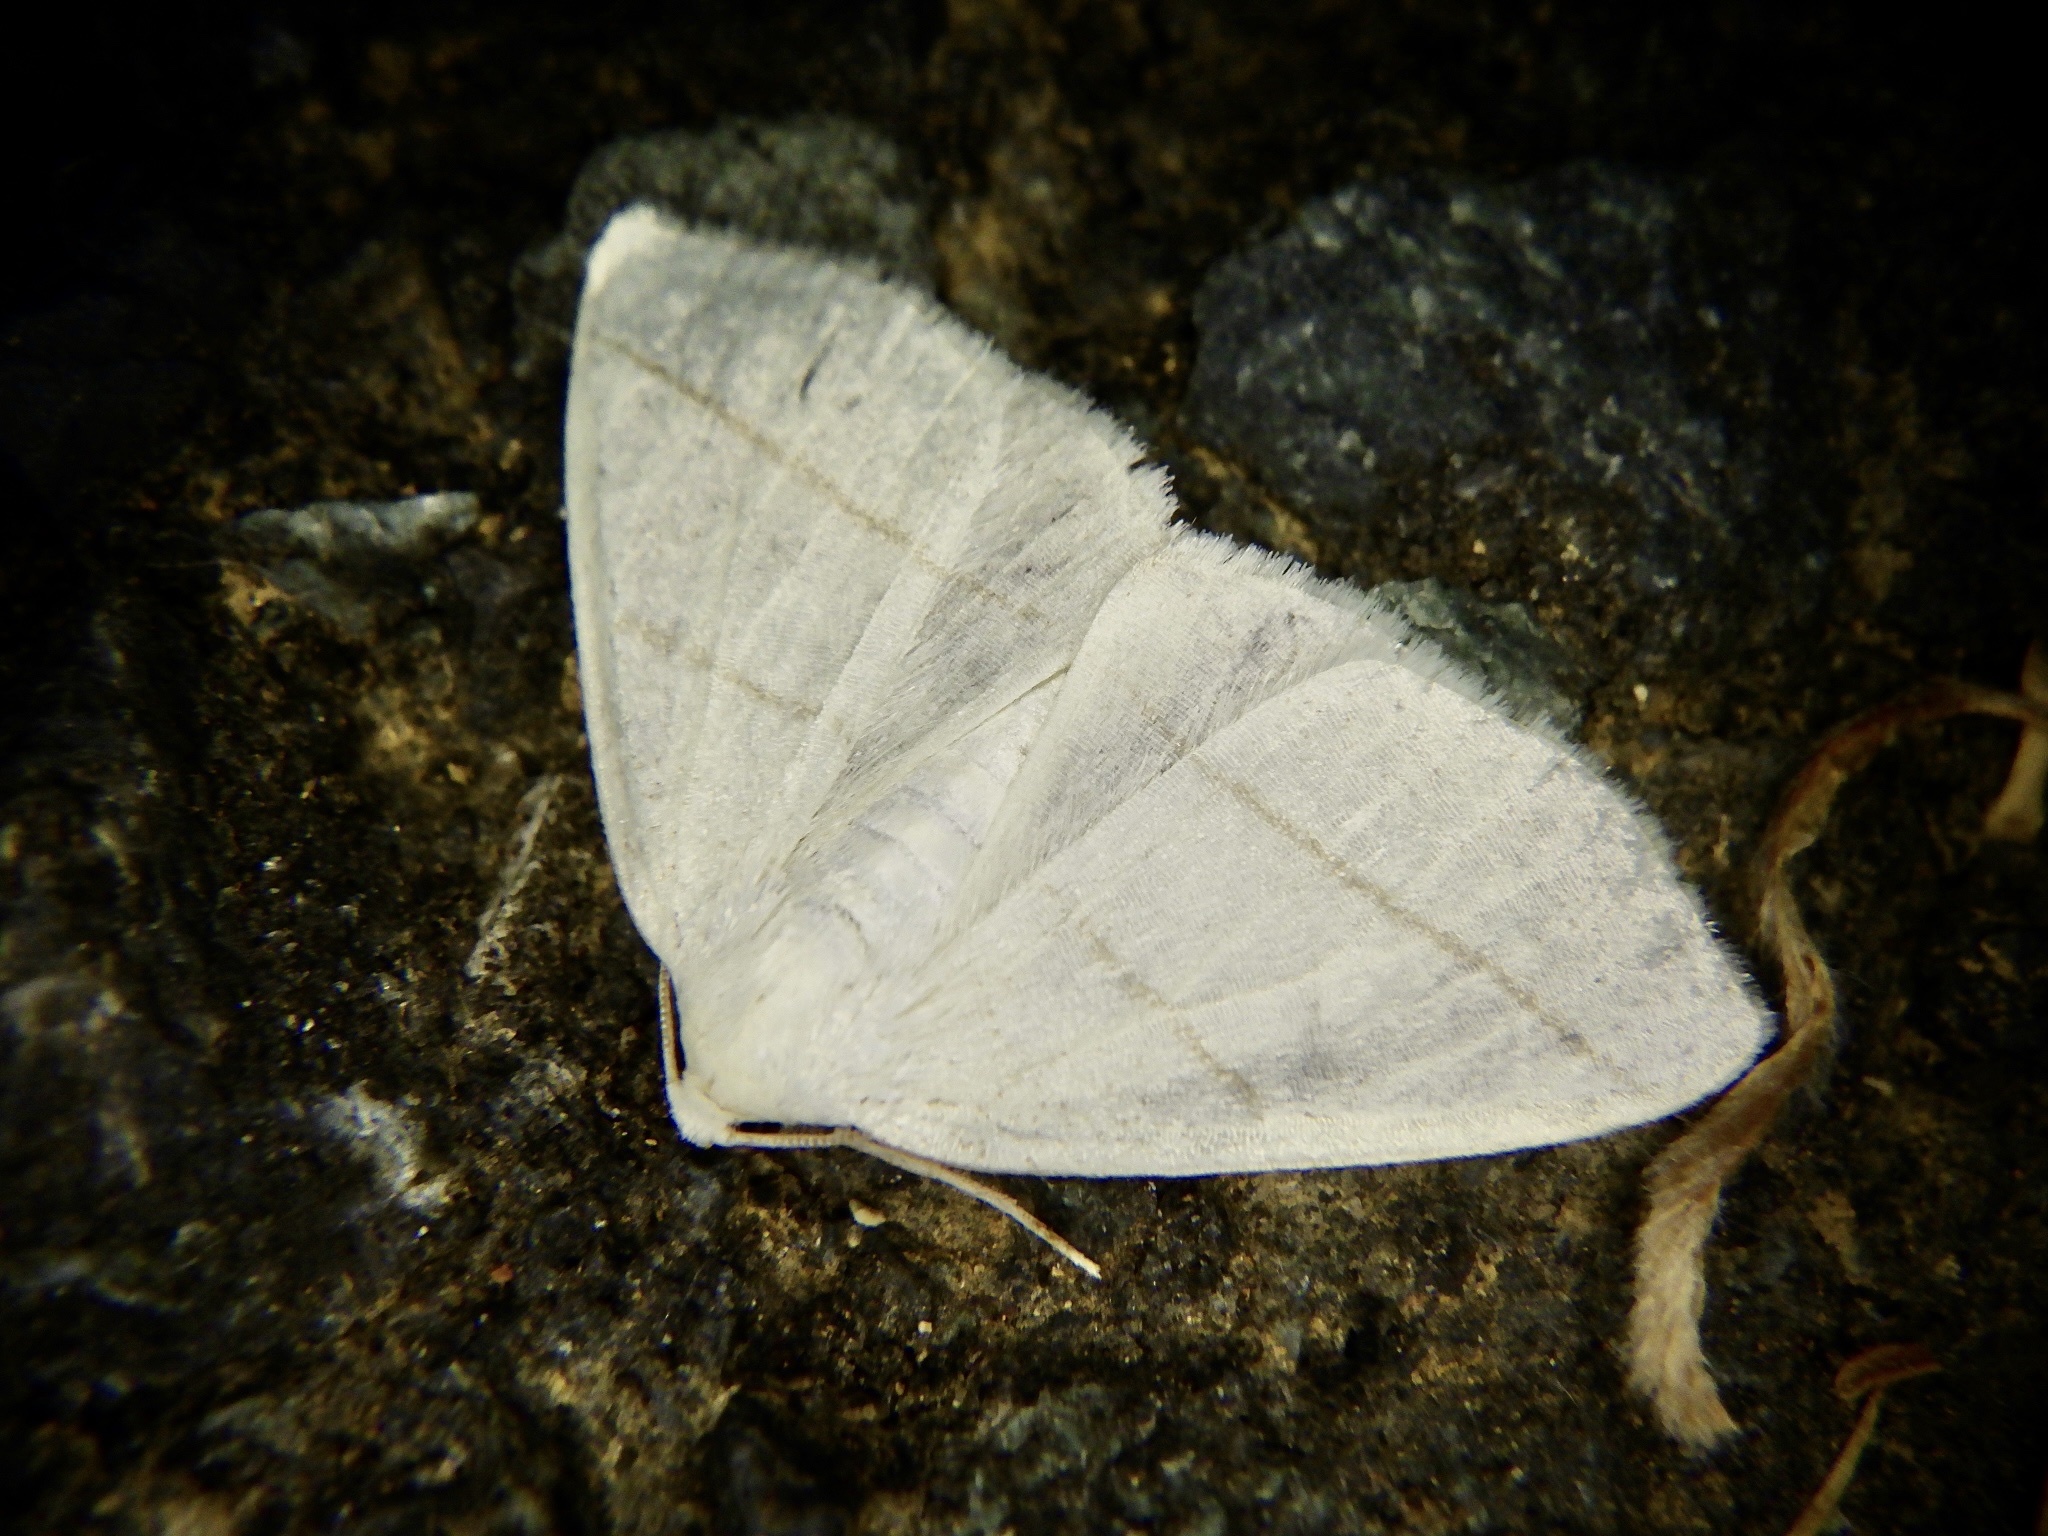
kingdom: Animalia
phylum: Arthropoda
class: Insecta
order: Lepidoptera
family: Geometridae
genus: Parabapta
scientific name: Parabapta clarissa
